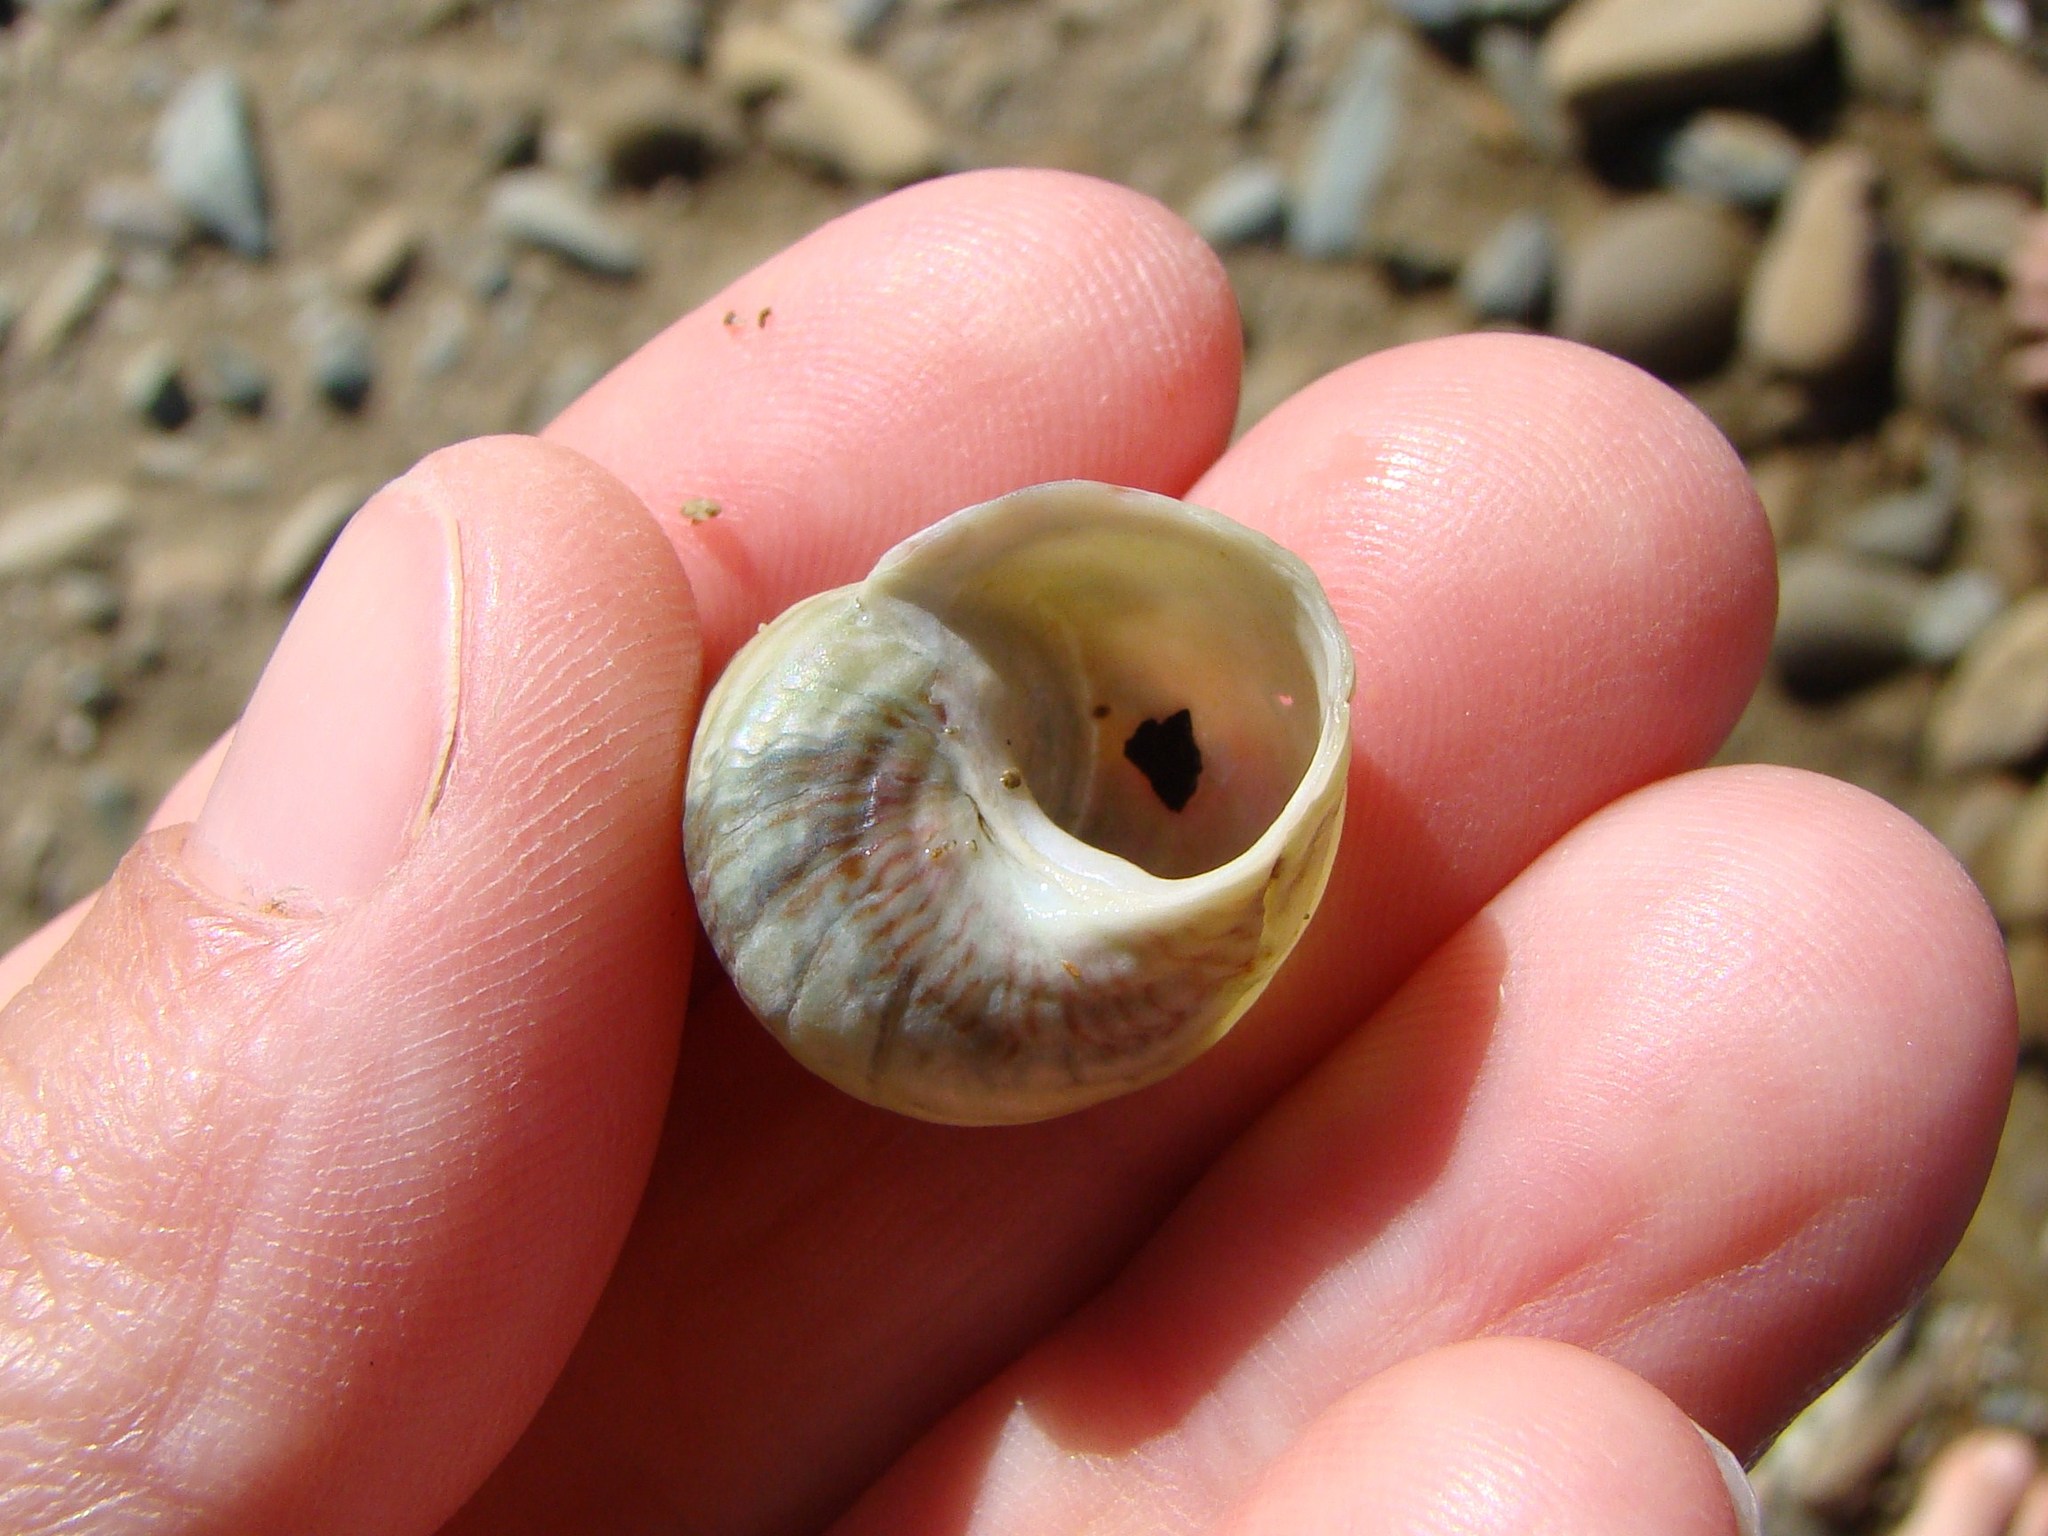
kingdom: Animalia
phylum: Mollusca
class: Gastropoda
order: Trochida
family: Trochidae
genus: Micrelenchus
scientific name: Micrelenchus purpureus
